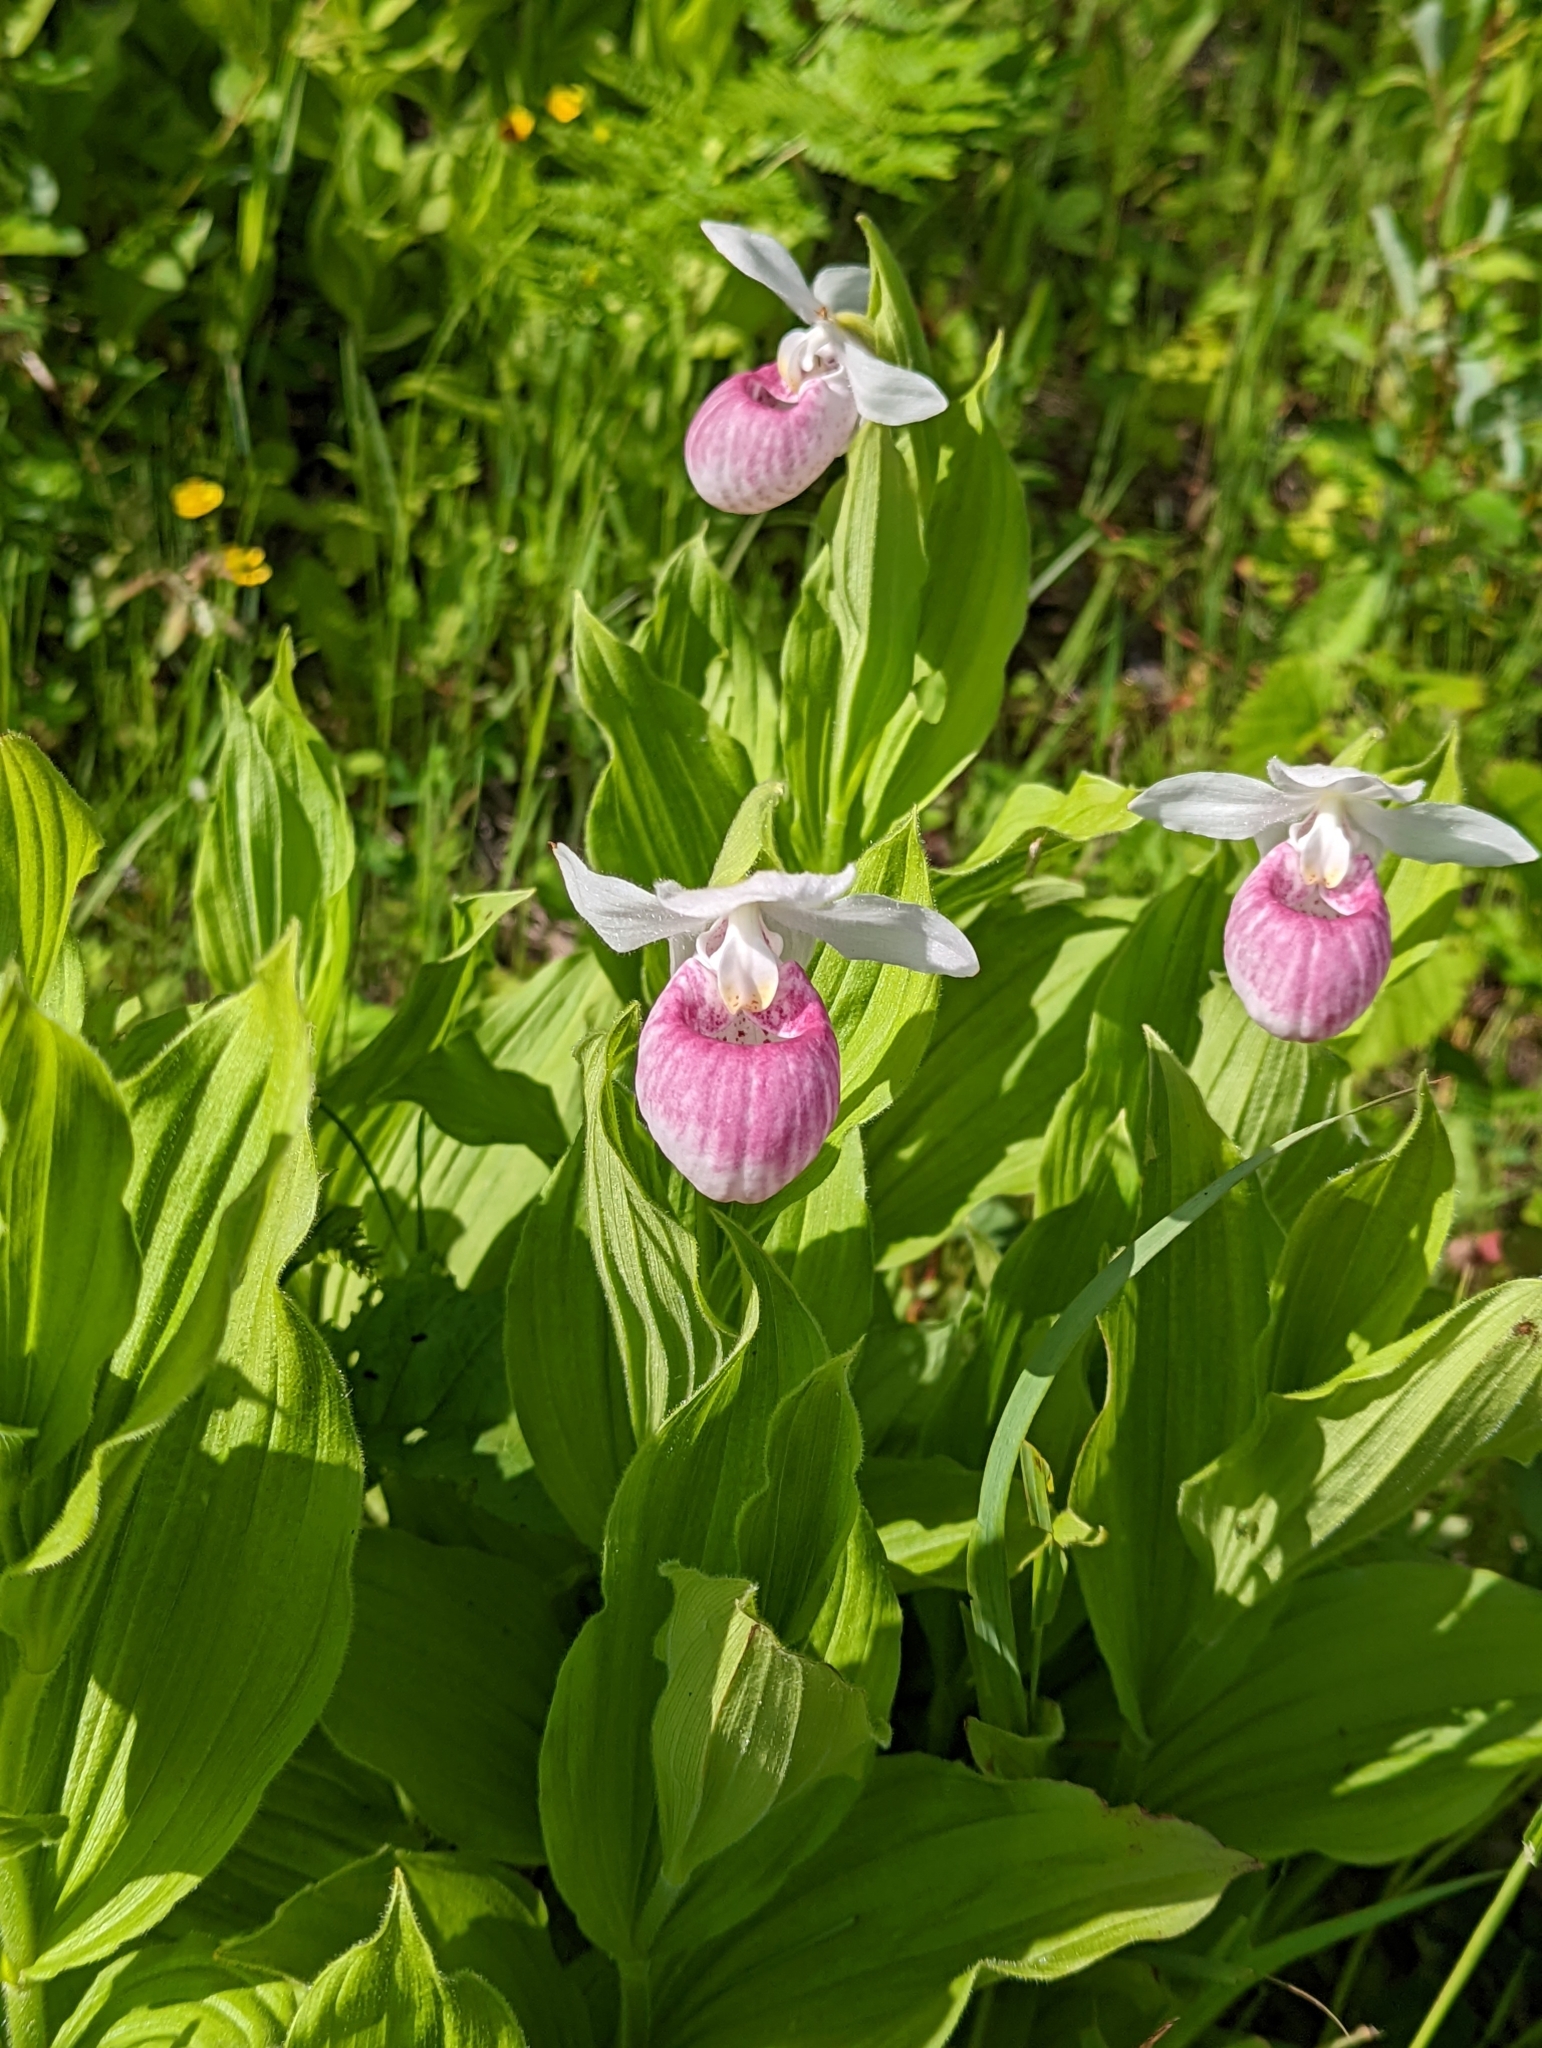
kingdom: Plantae
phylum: Tracheophyta
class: Liliopsida
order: Asparagales
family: Orchidaceae
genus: Cypripedium
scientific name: Cypripedium reginae
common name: Queen lady's-slipper
